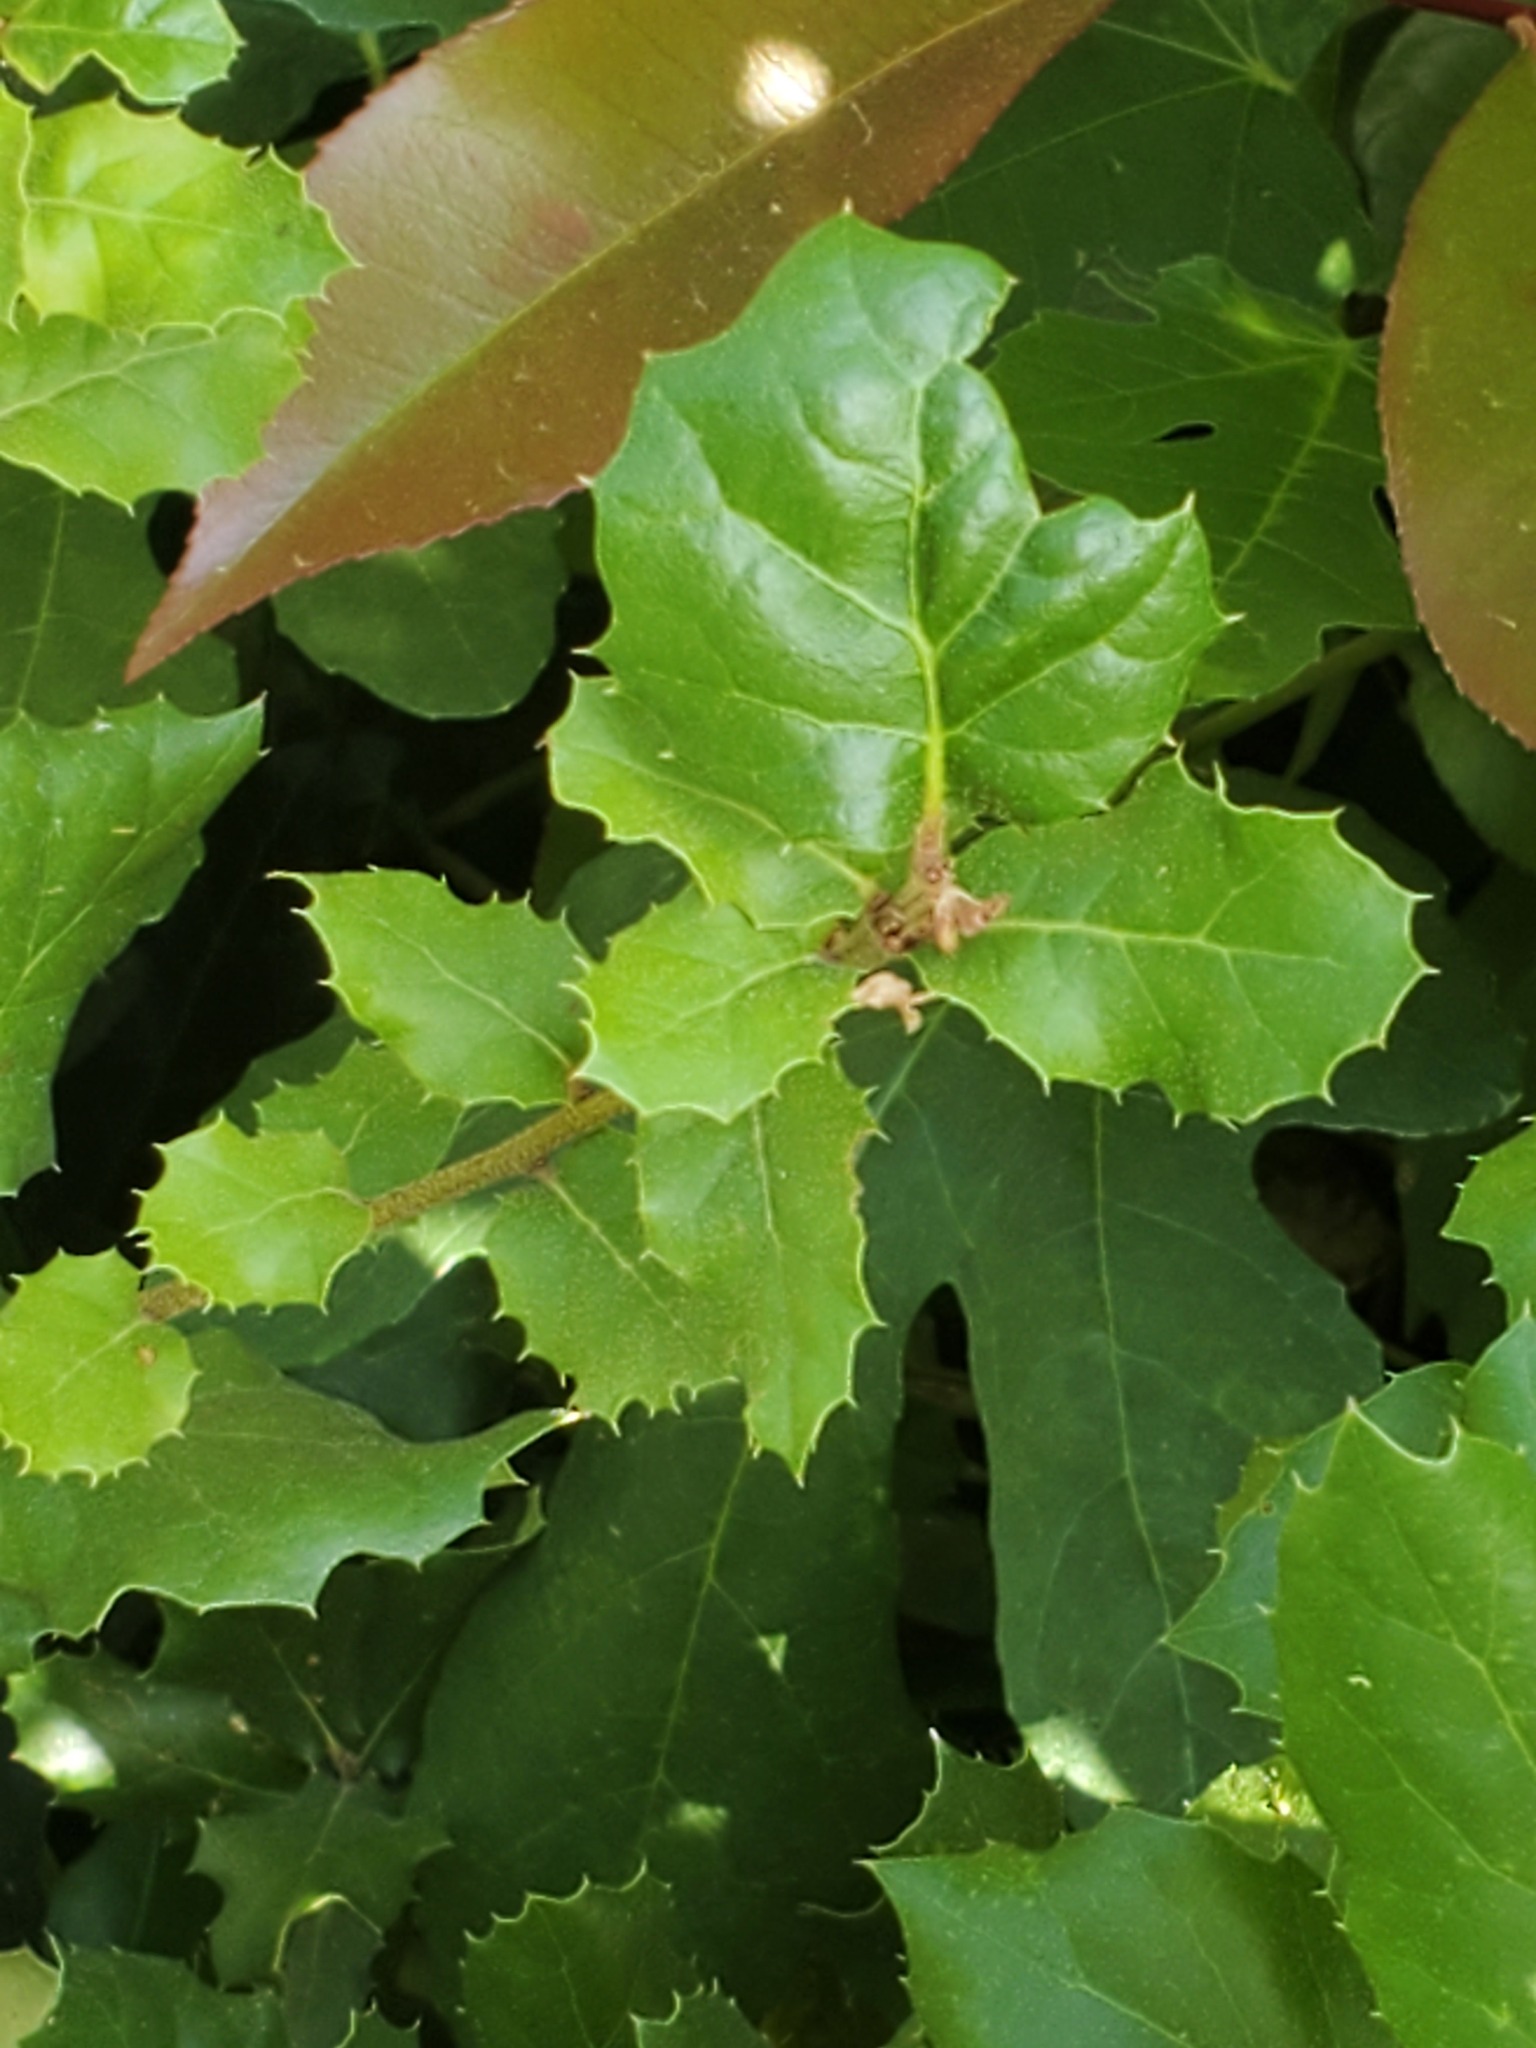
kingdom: Plantae
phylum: Tracheophyta
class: Magnoliopsida
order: Fagales
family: Fagaceae
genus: Quercus
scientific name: Quercus agrifolia
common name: California live oak
